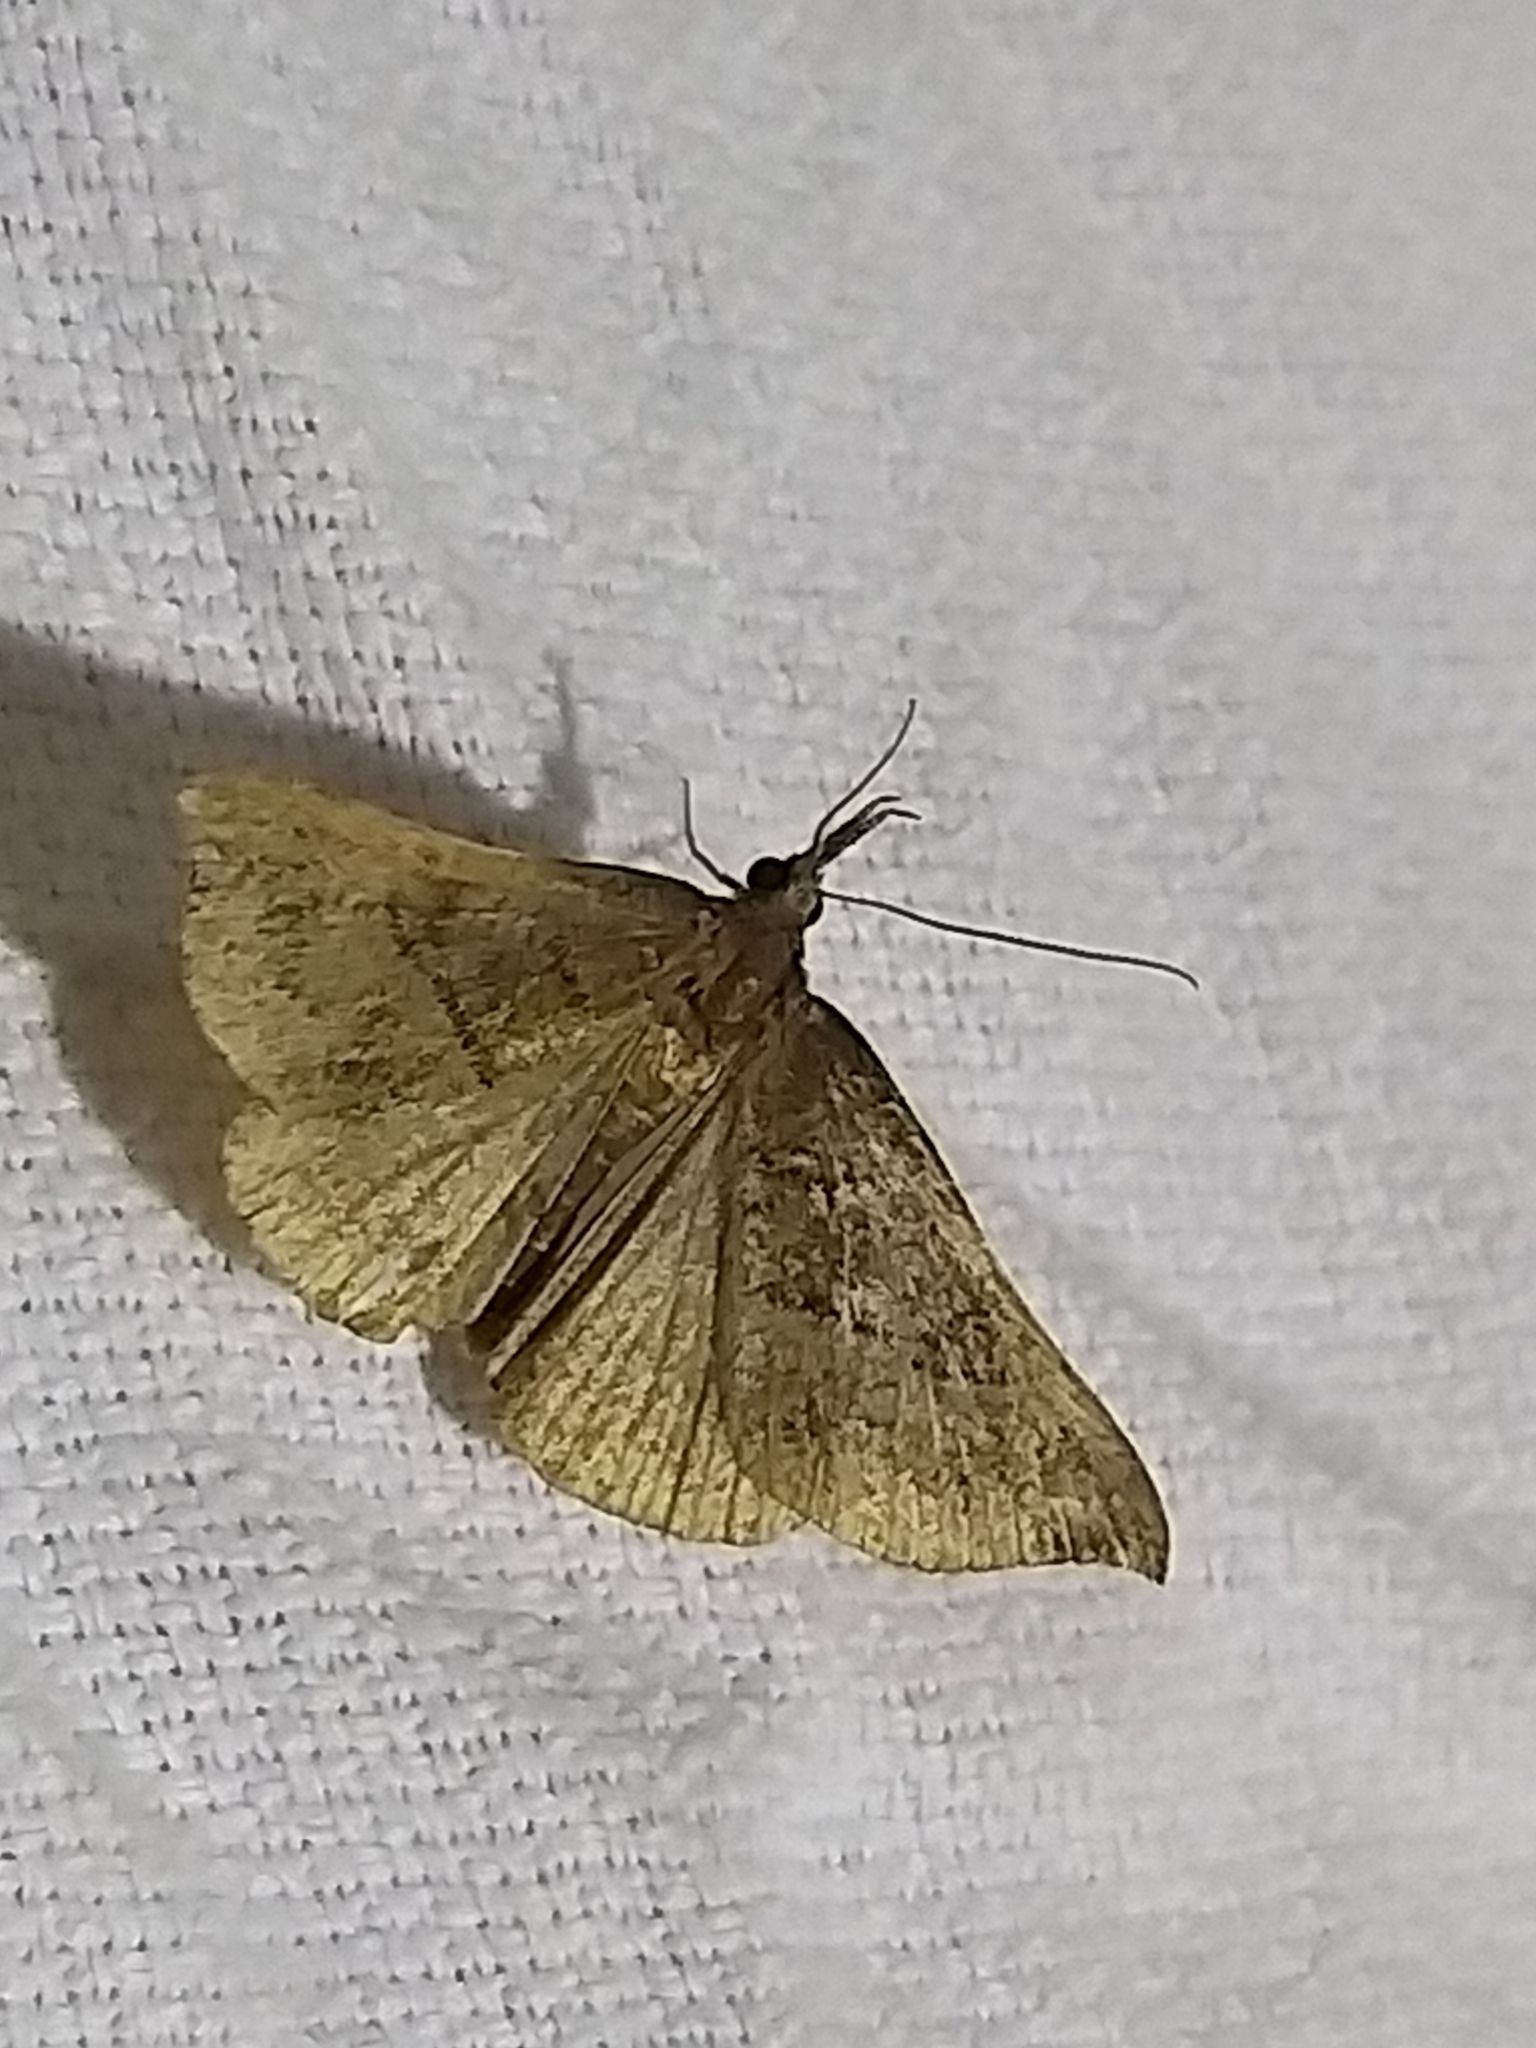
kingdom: Animalia
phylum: Arthropoda
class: Insecta
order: Lepidoptera
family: Erebidae
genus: Hypena
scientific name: Hypena proboscidalis
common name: Snout
